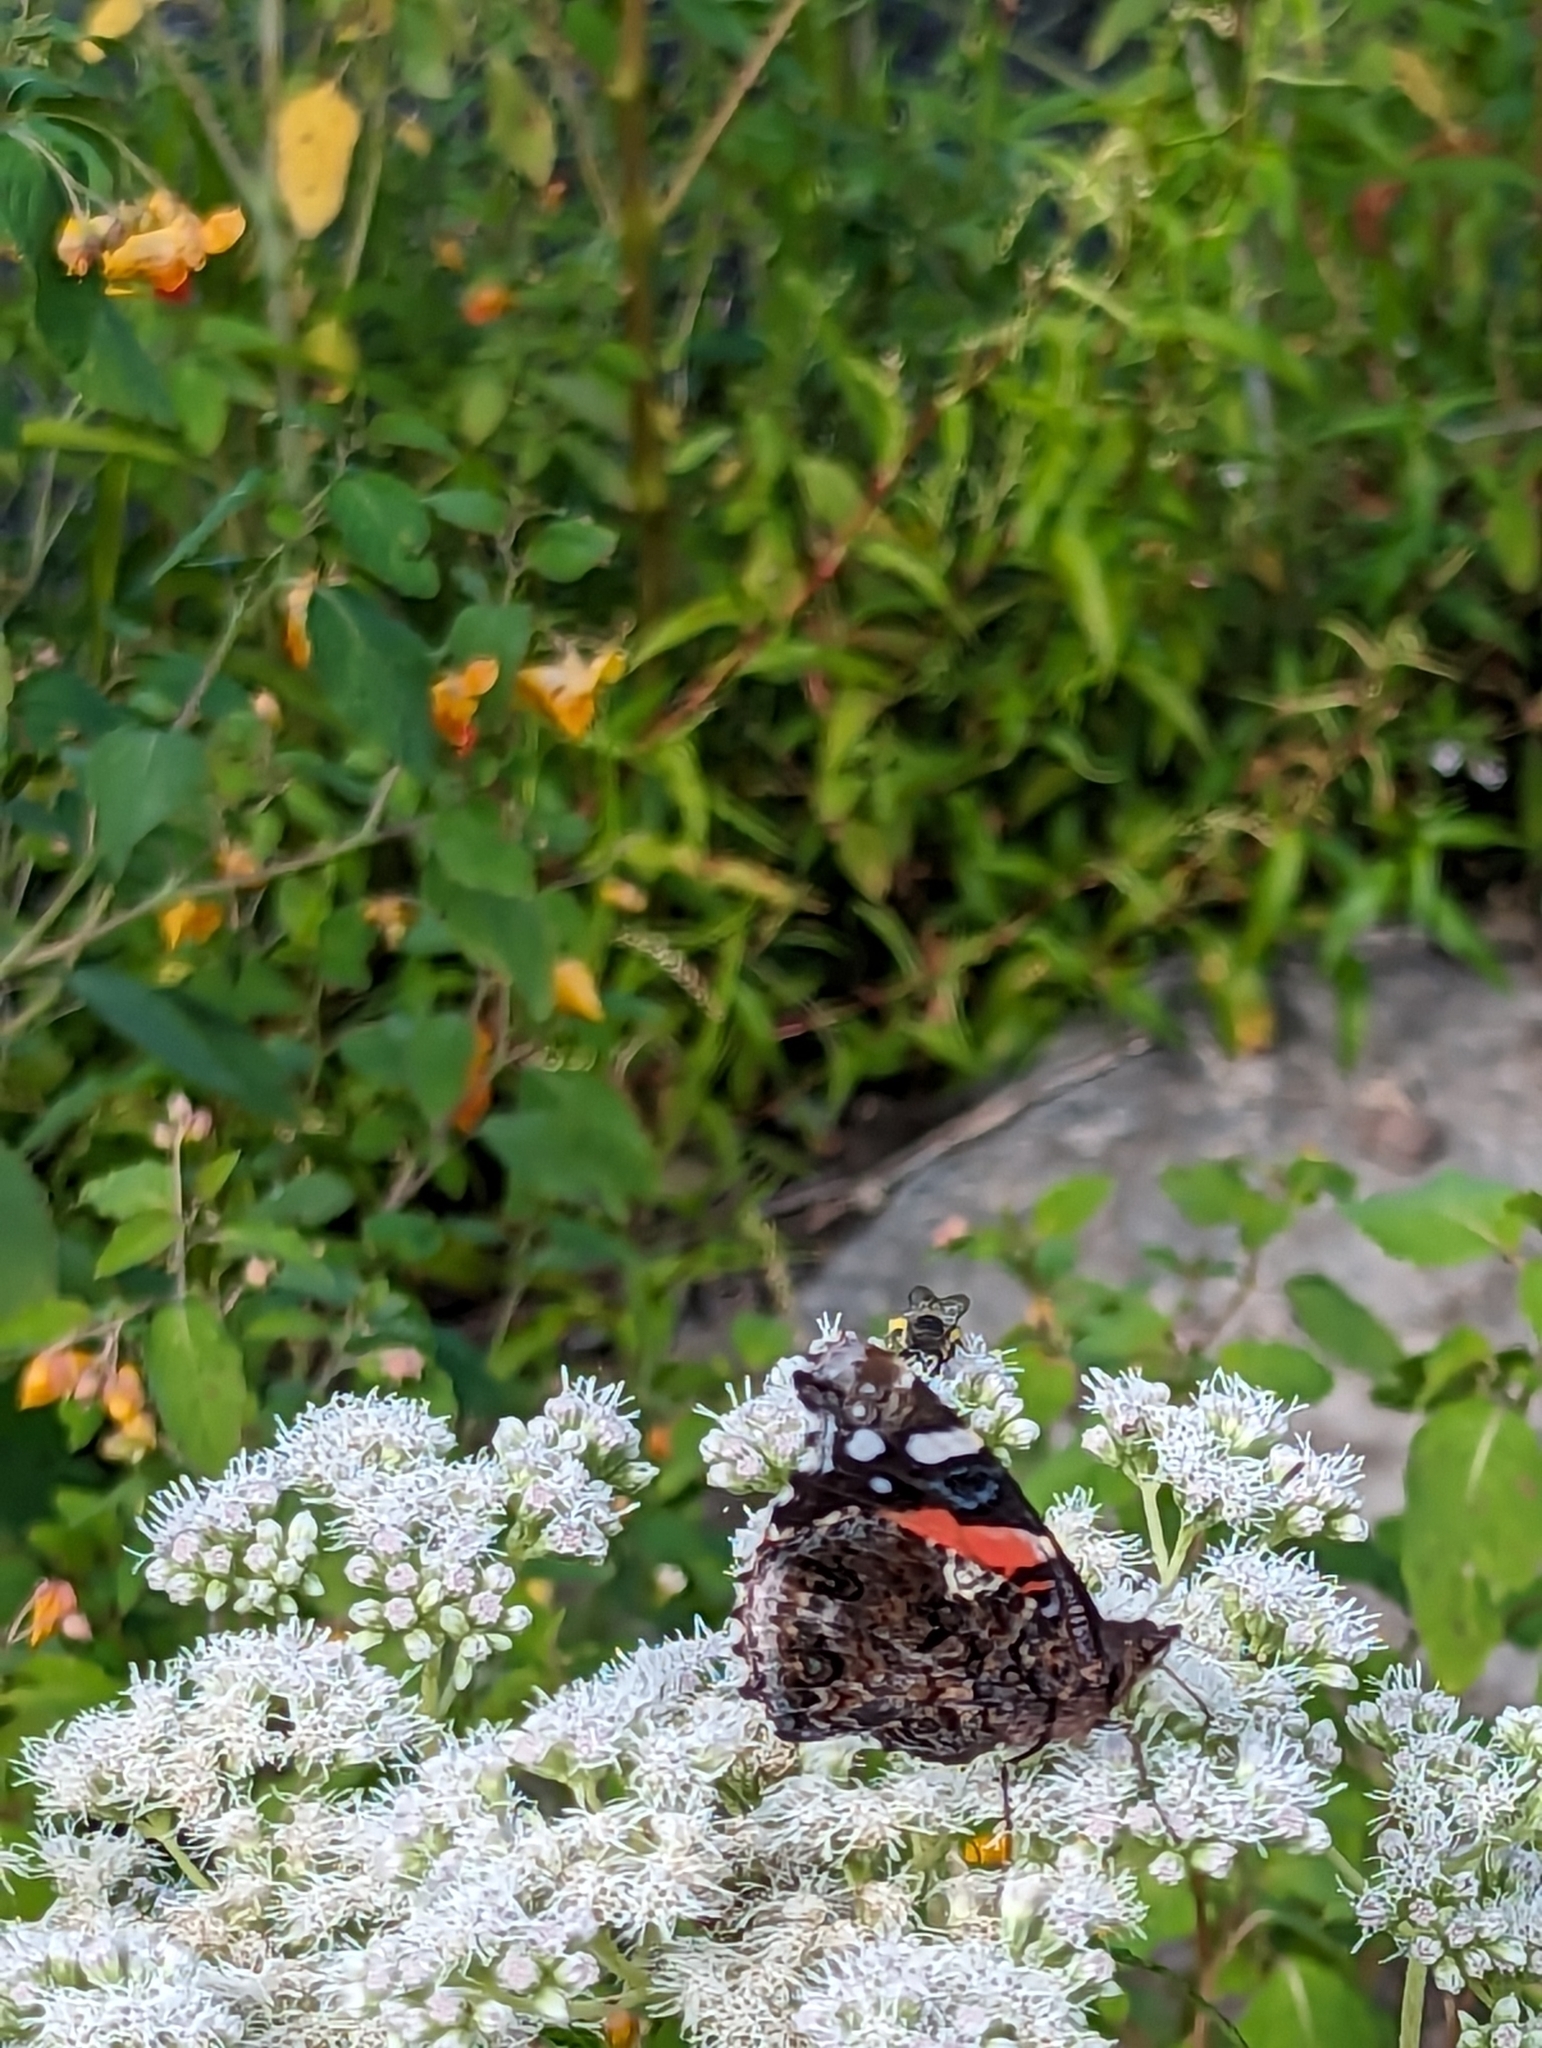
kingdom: Animalia
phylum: Arthropoda
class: Insecta
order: Lepidoptera
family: Nymphalidae
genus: Vanessa
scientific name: Vanessa atalanta
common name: Red admiral
